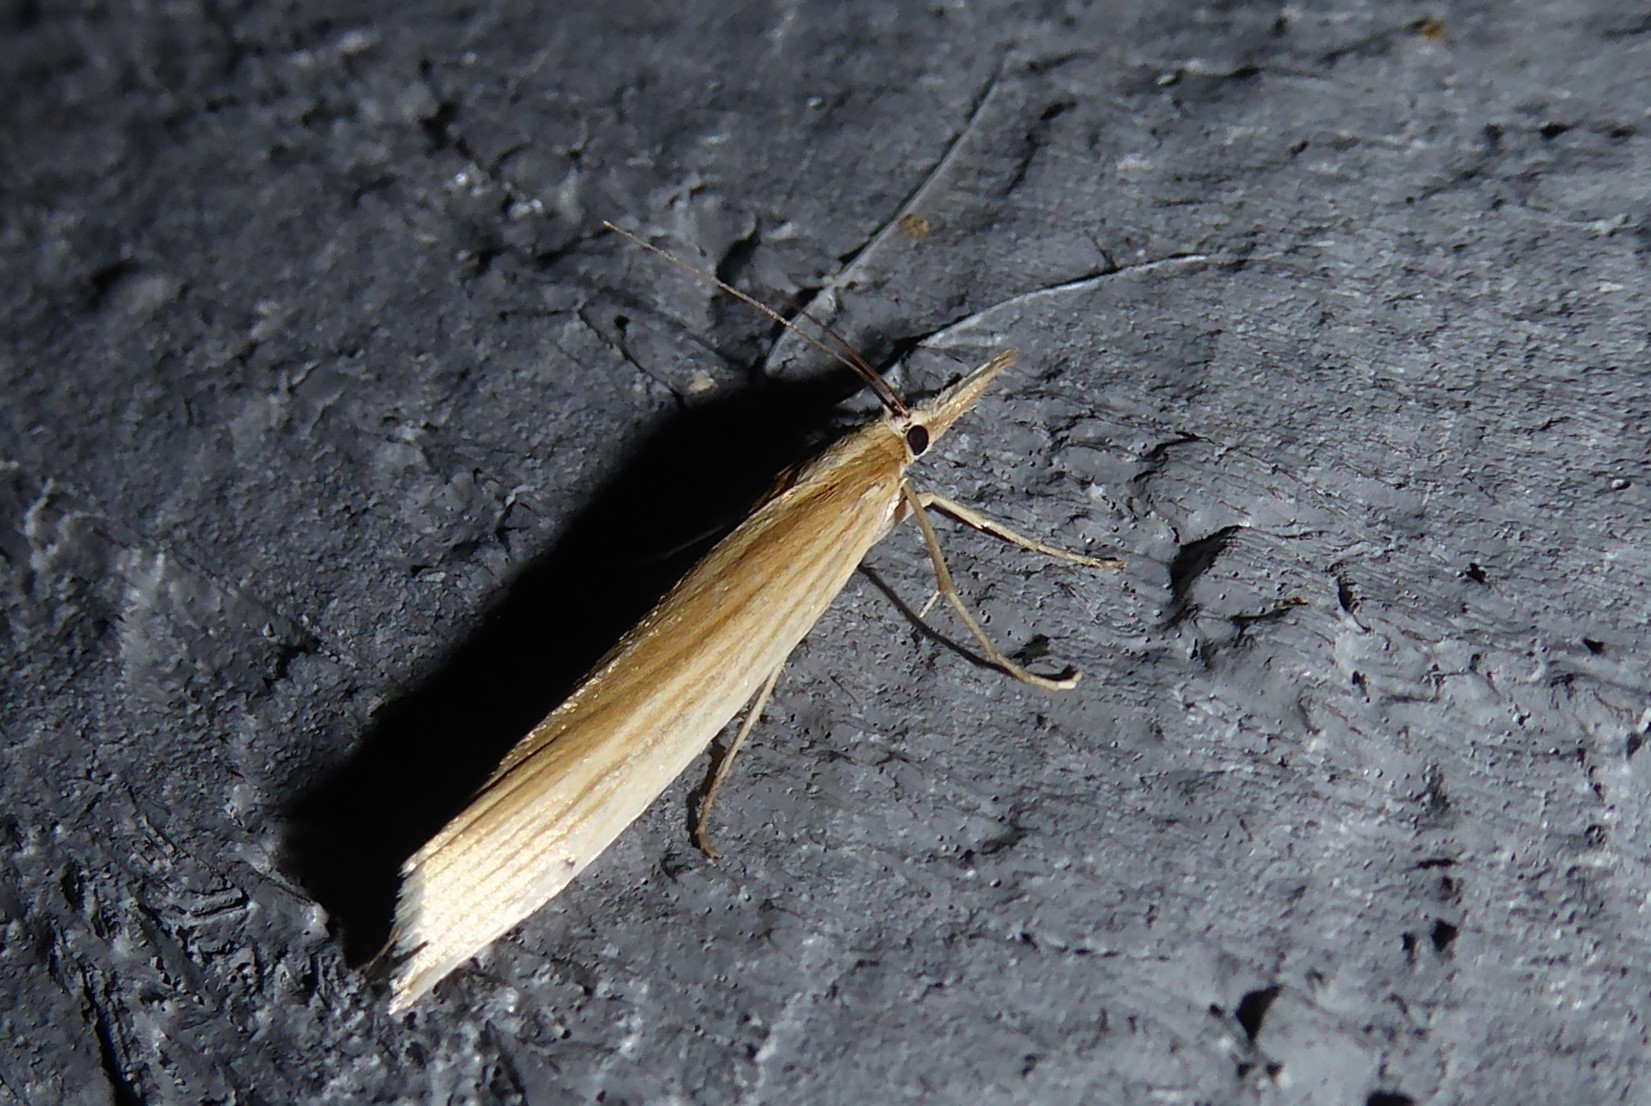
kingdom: Animalia
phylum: Arthropoda
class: Insecta
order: Lepidoptera
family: Crambidae
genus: Orocrambus
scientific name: Orocrambus angustipennis
